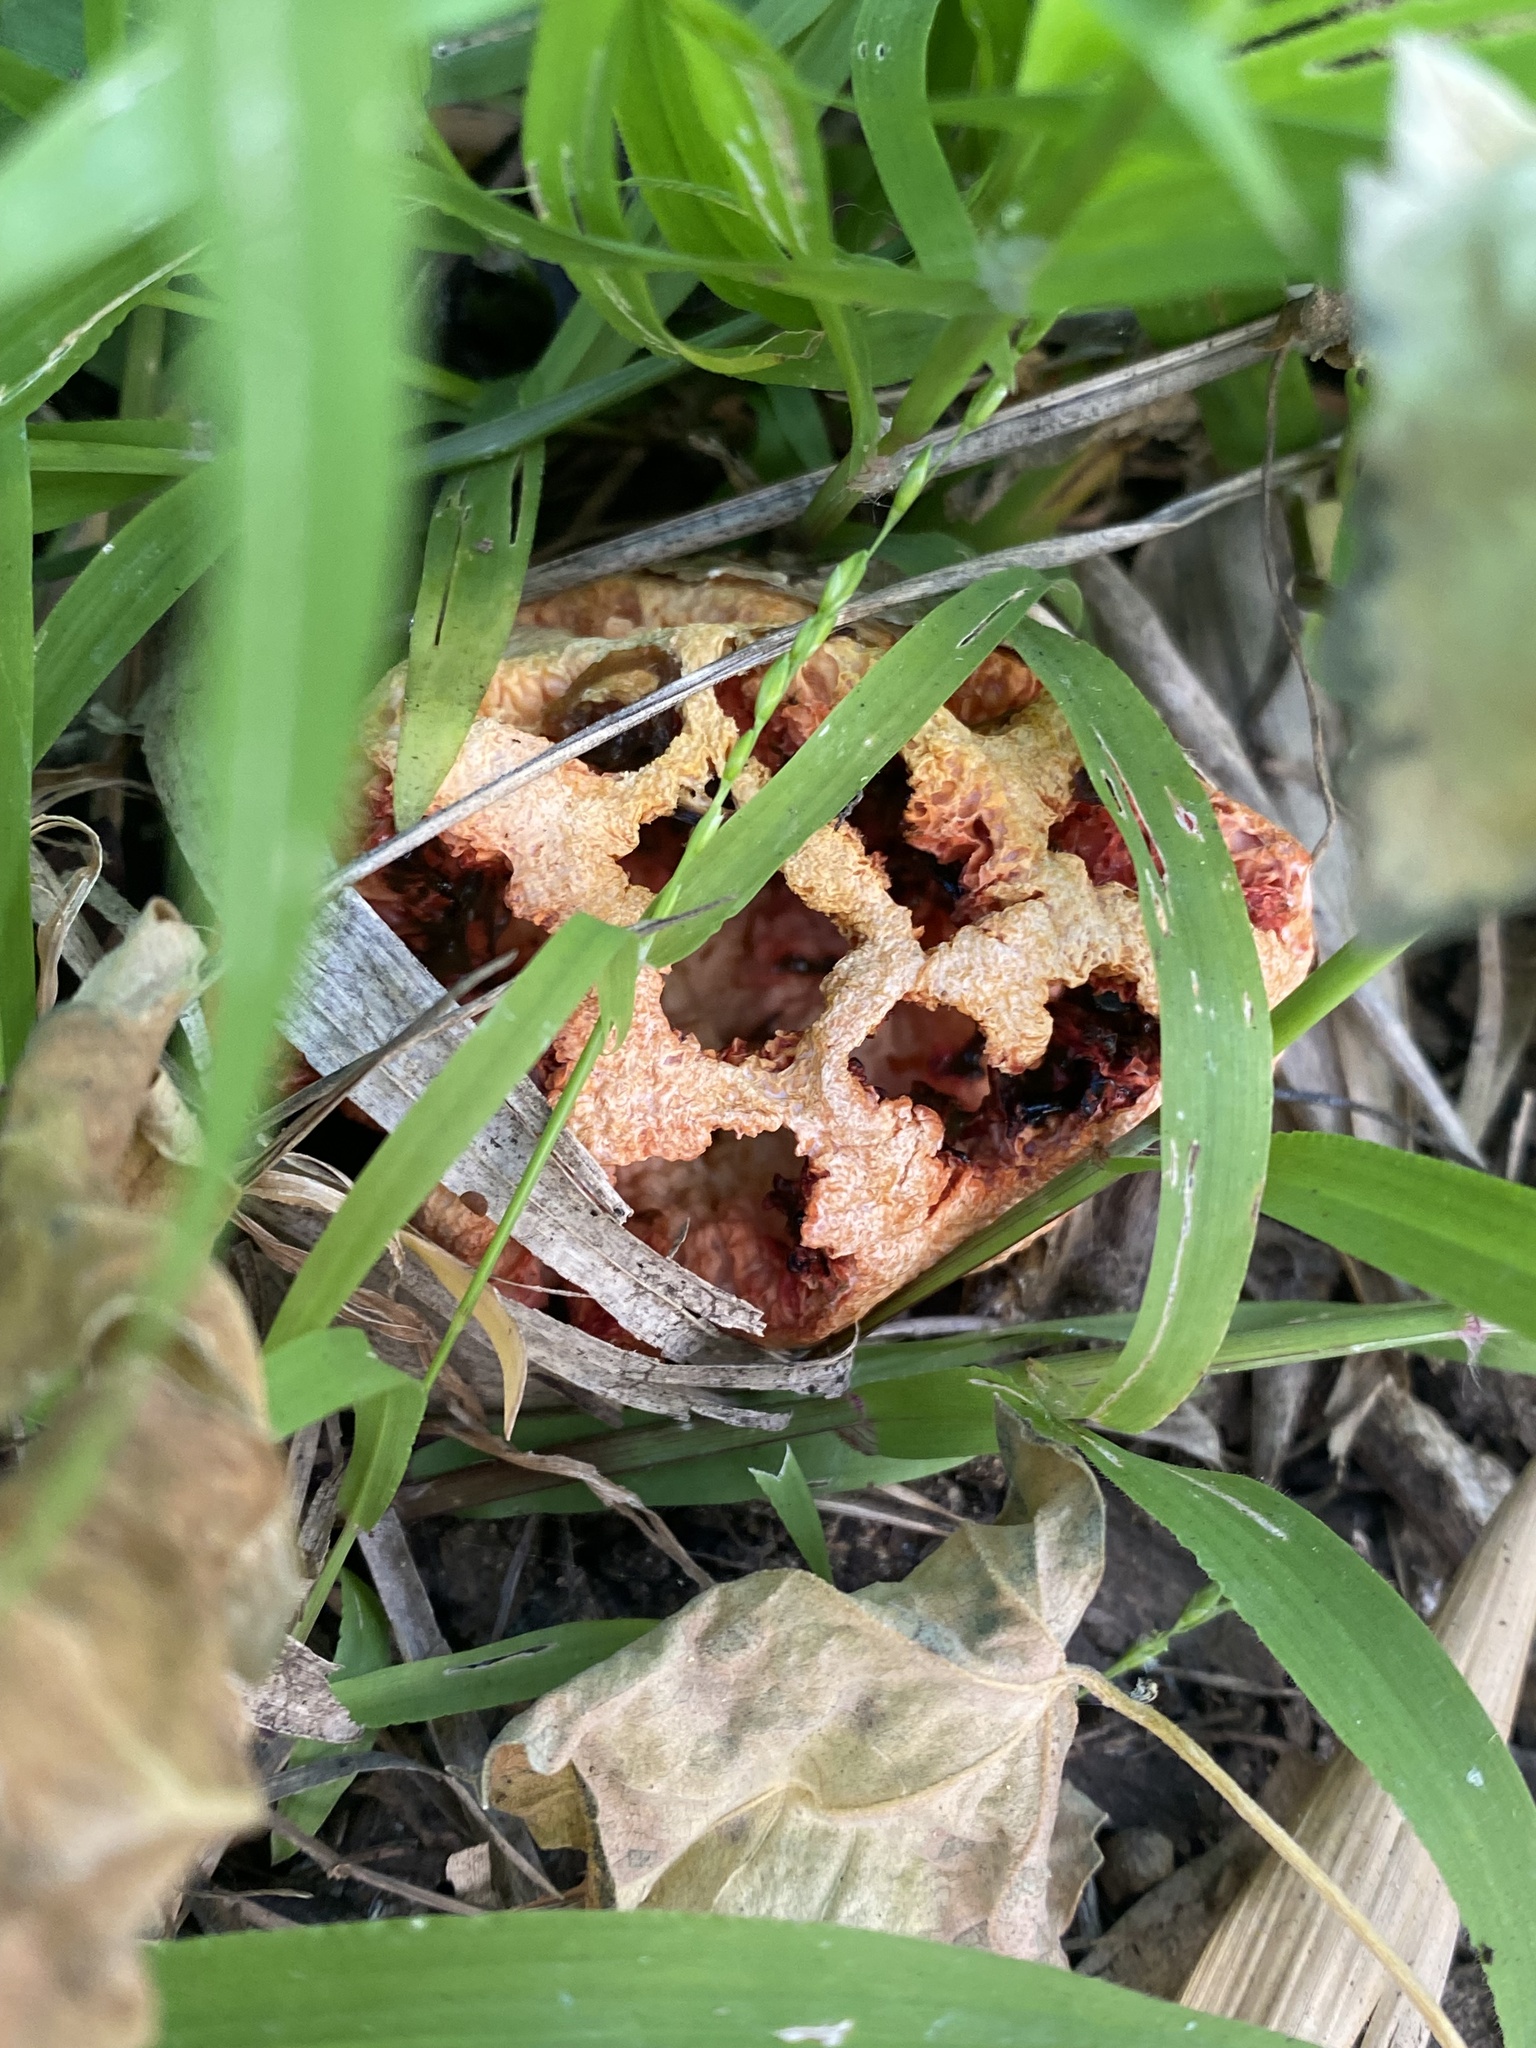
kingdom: Fungi
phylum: Basidiomycota
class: Agaricomycetes
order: Phallales
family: Phallaceae
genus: Clathrus
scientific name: Clathrus ruber
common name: Red cage
